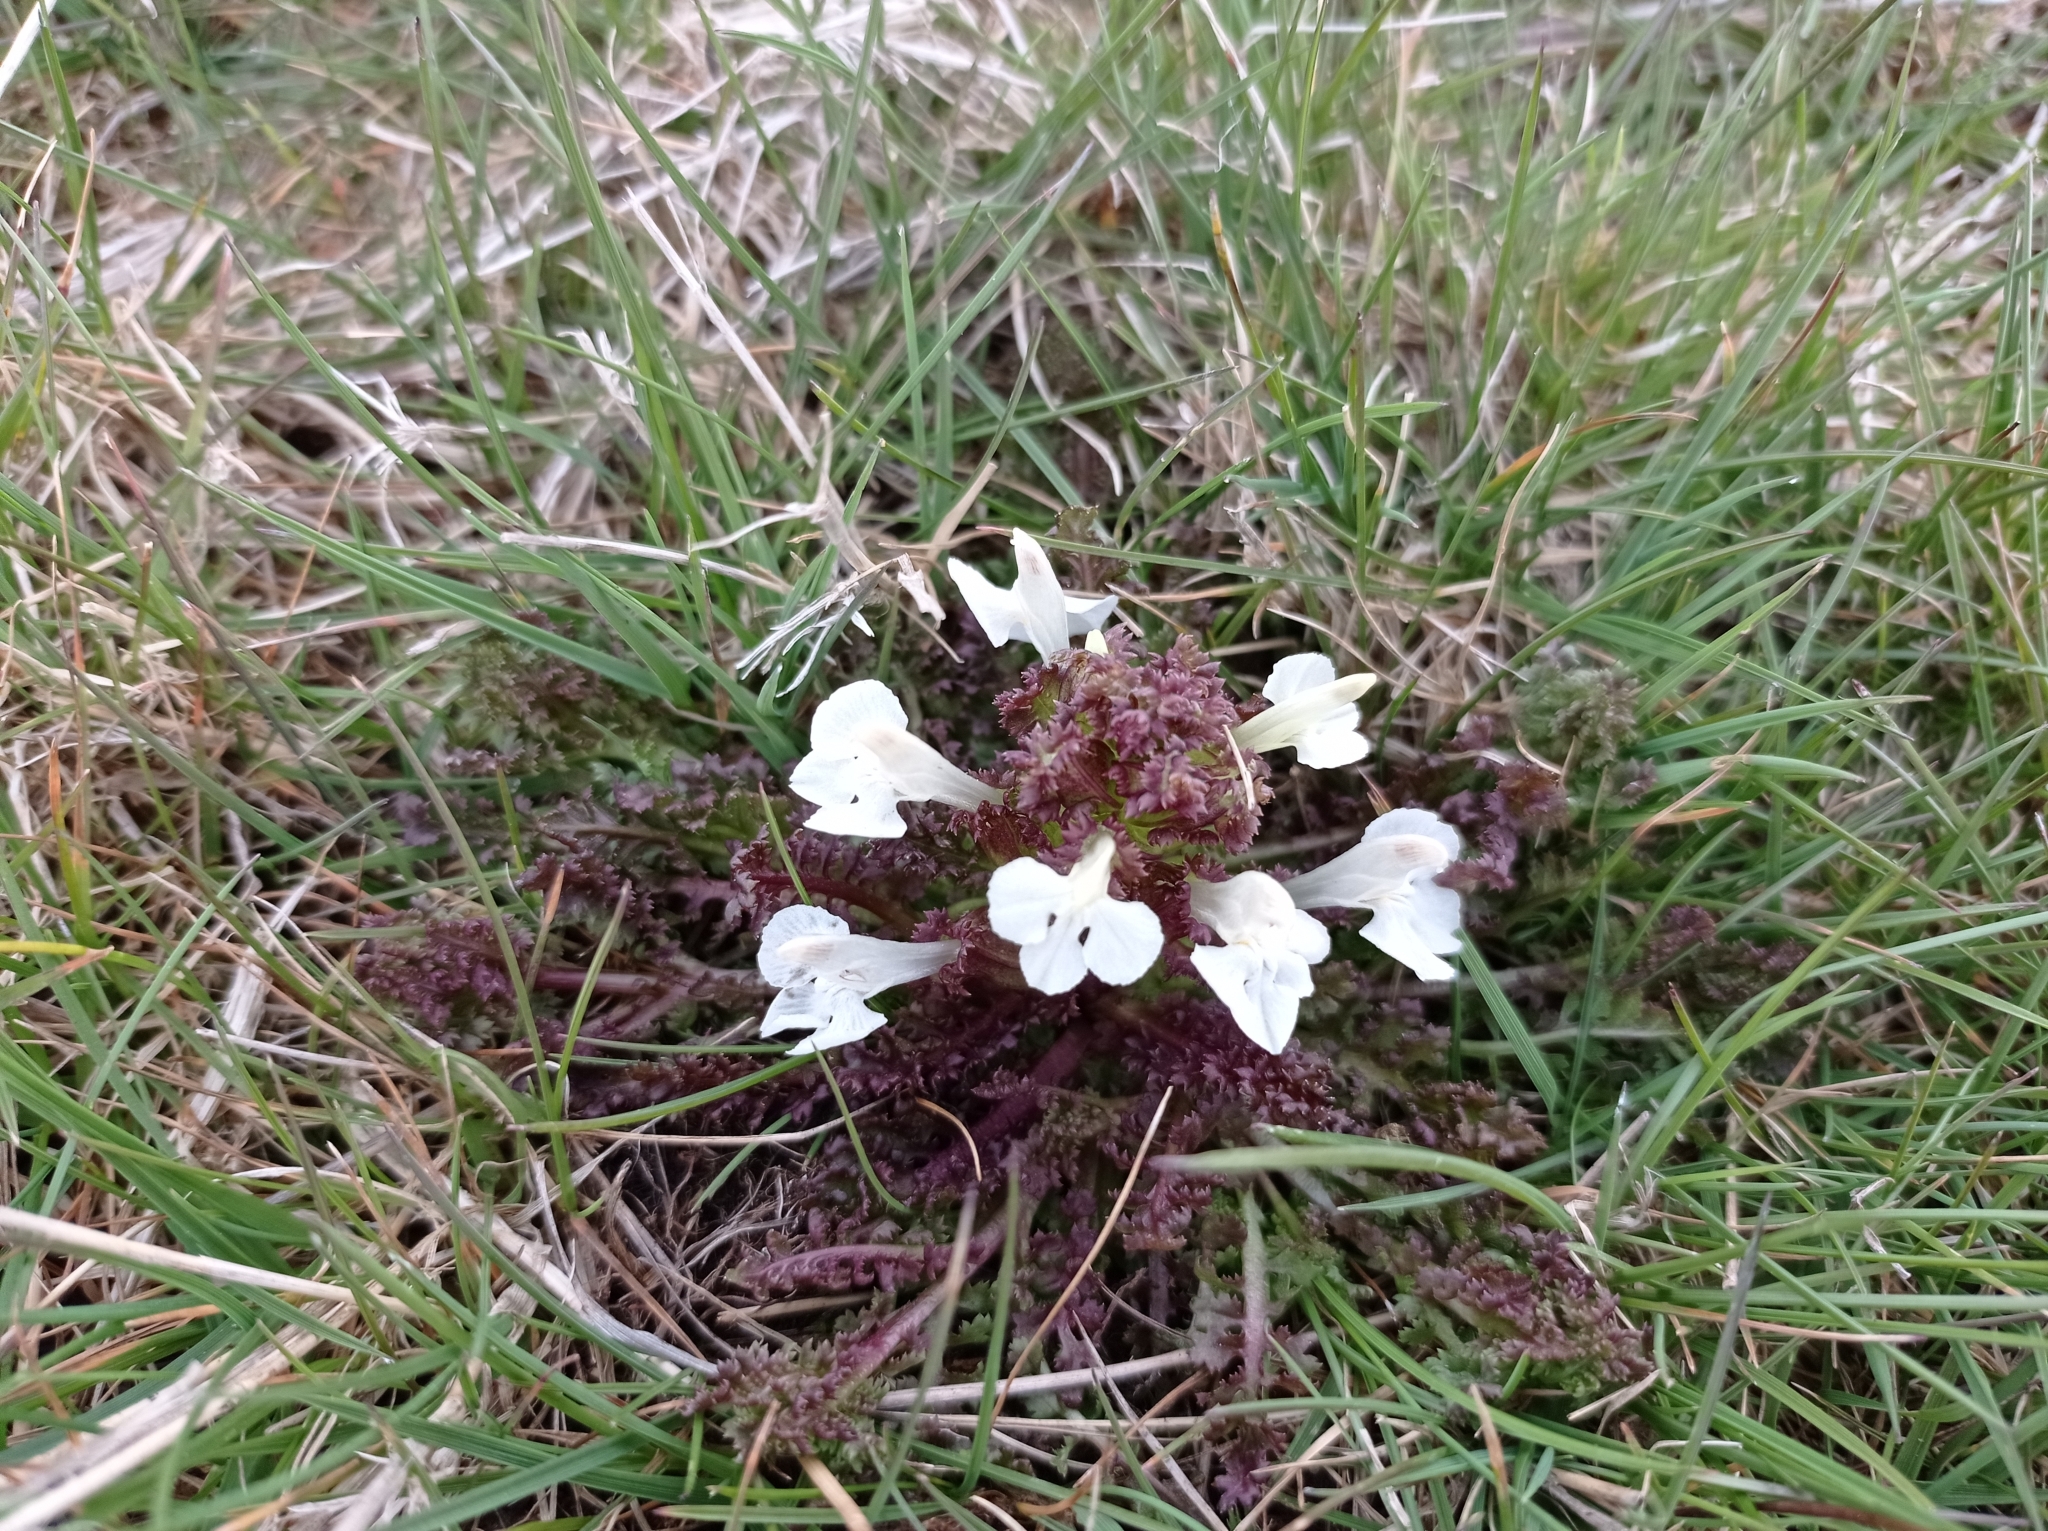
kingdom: Plantae
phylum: Tracheophyta
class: Magnoliopsida
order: Lamiales
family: Orobanchaceae
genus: Pedicularis
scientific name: Pedicularis sylvatica
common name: Lousewort
